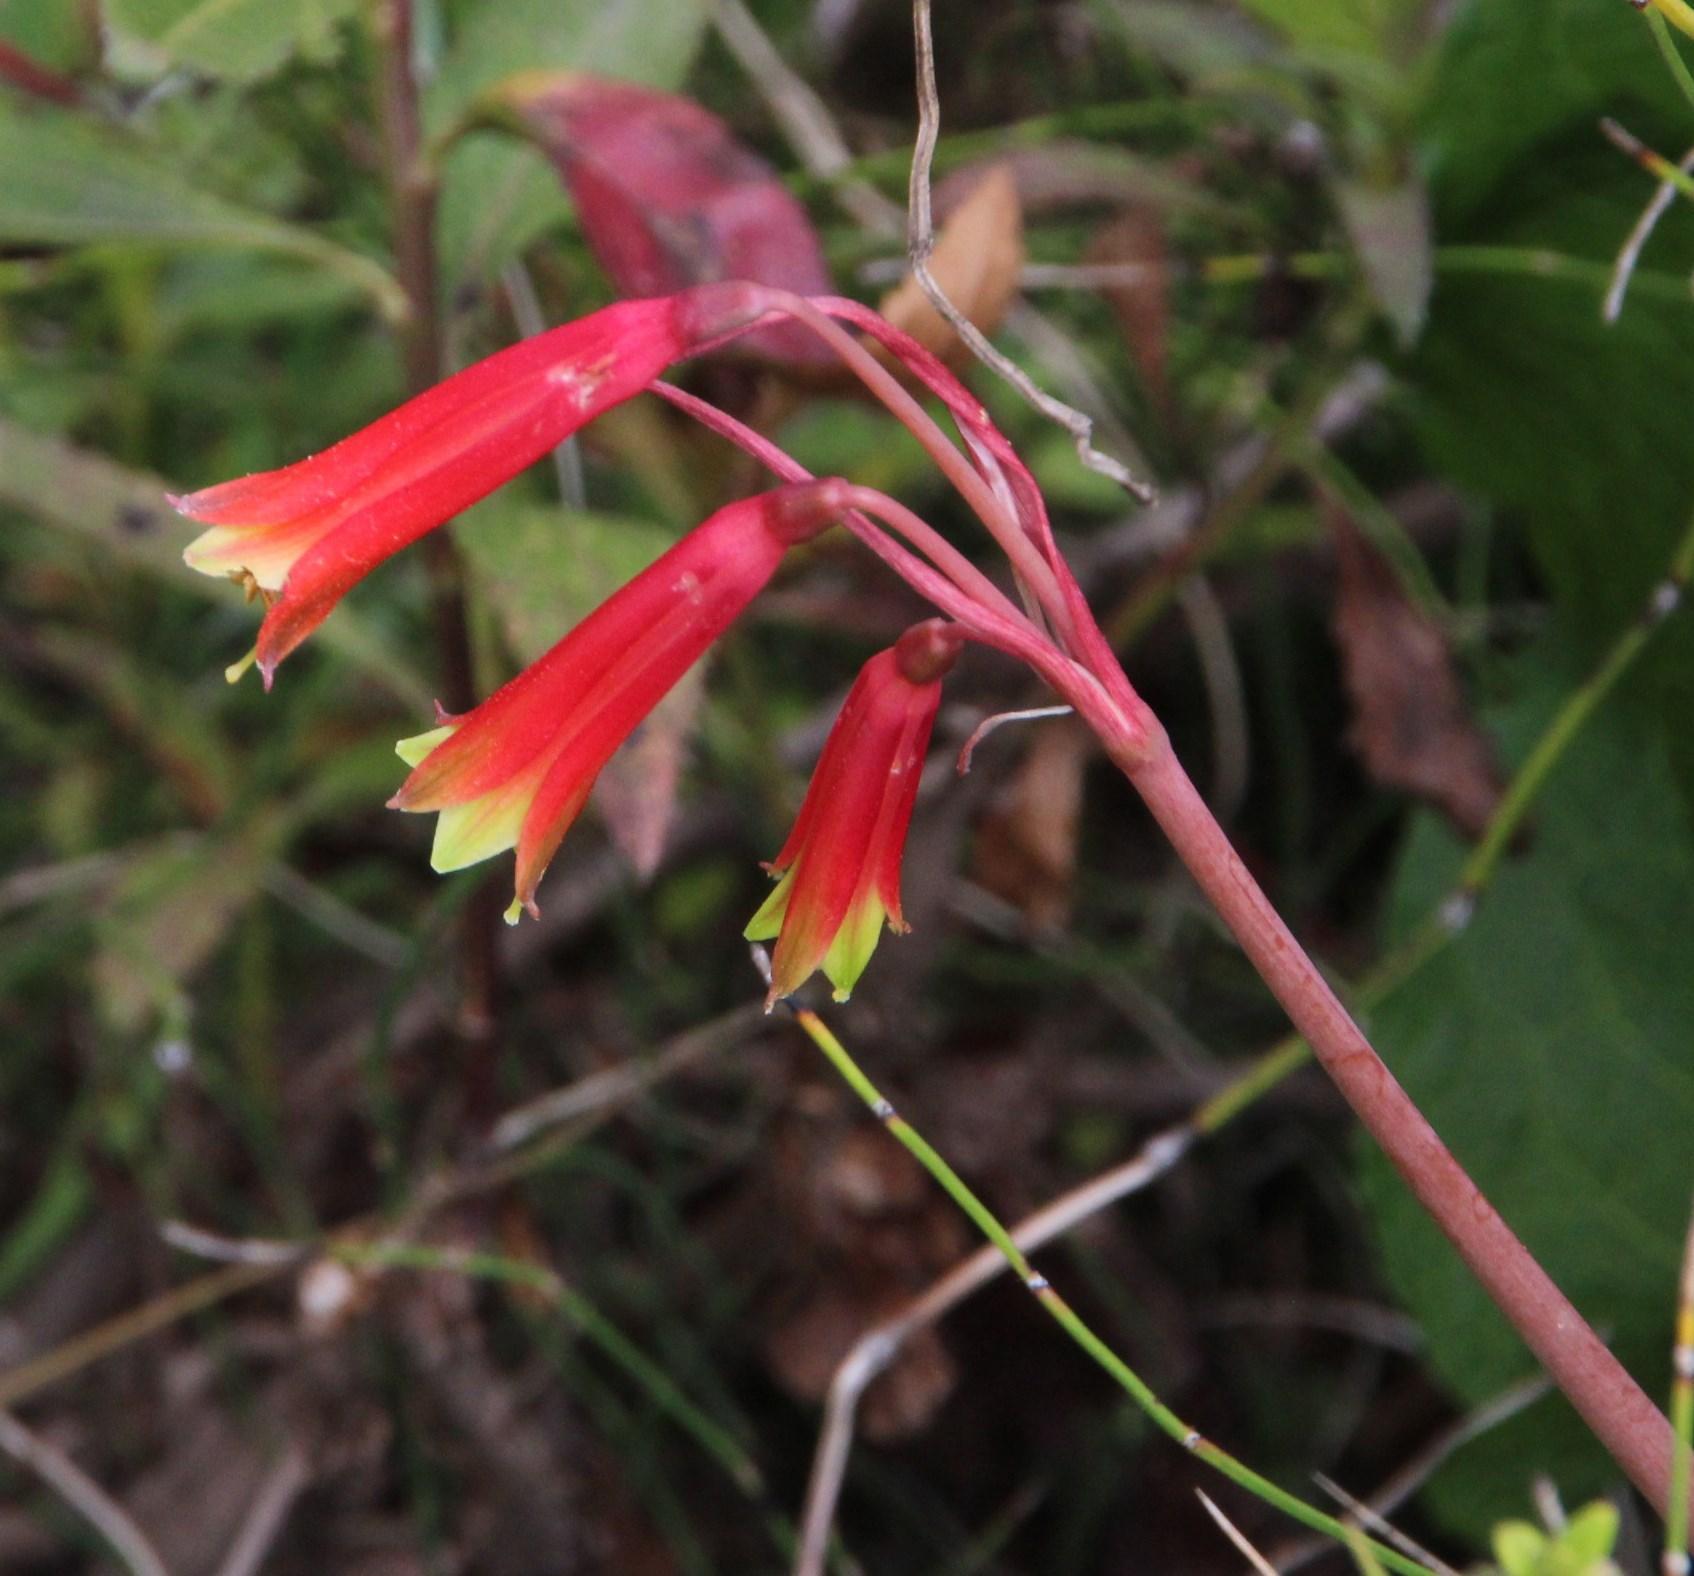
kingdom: Plantae
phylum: Tracheophyta
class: Liliopsida
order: Asparagales
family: Amaryllidaceae
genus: Eustephia
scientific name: Eustephia coccinea
